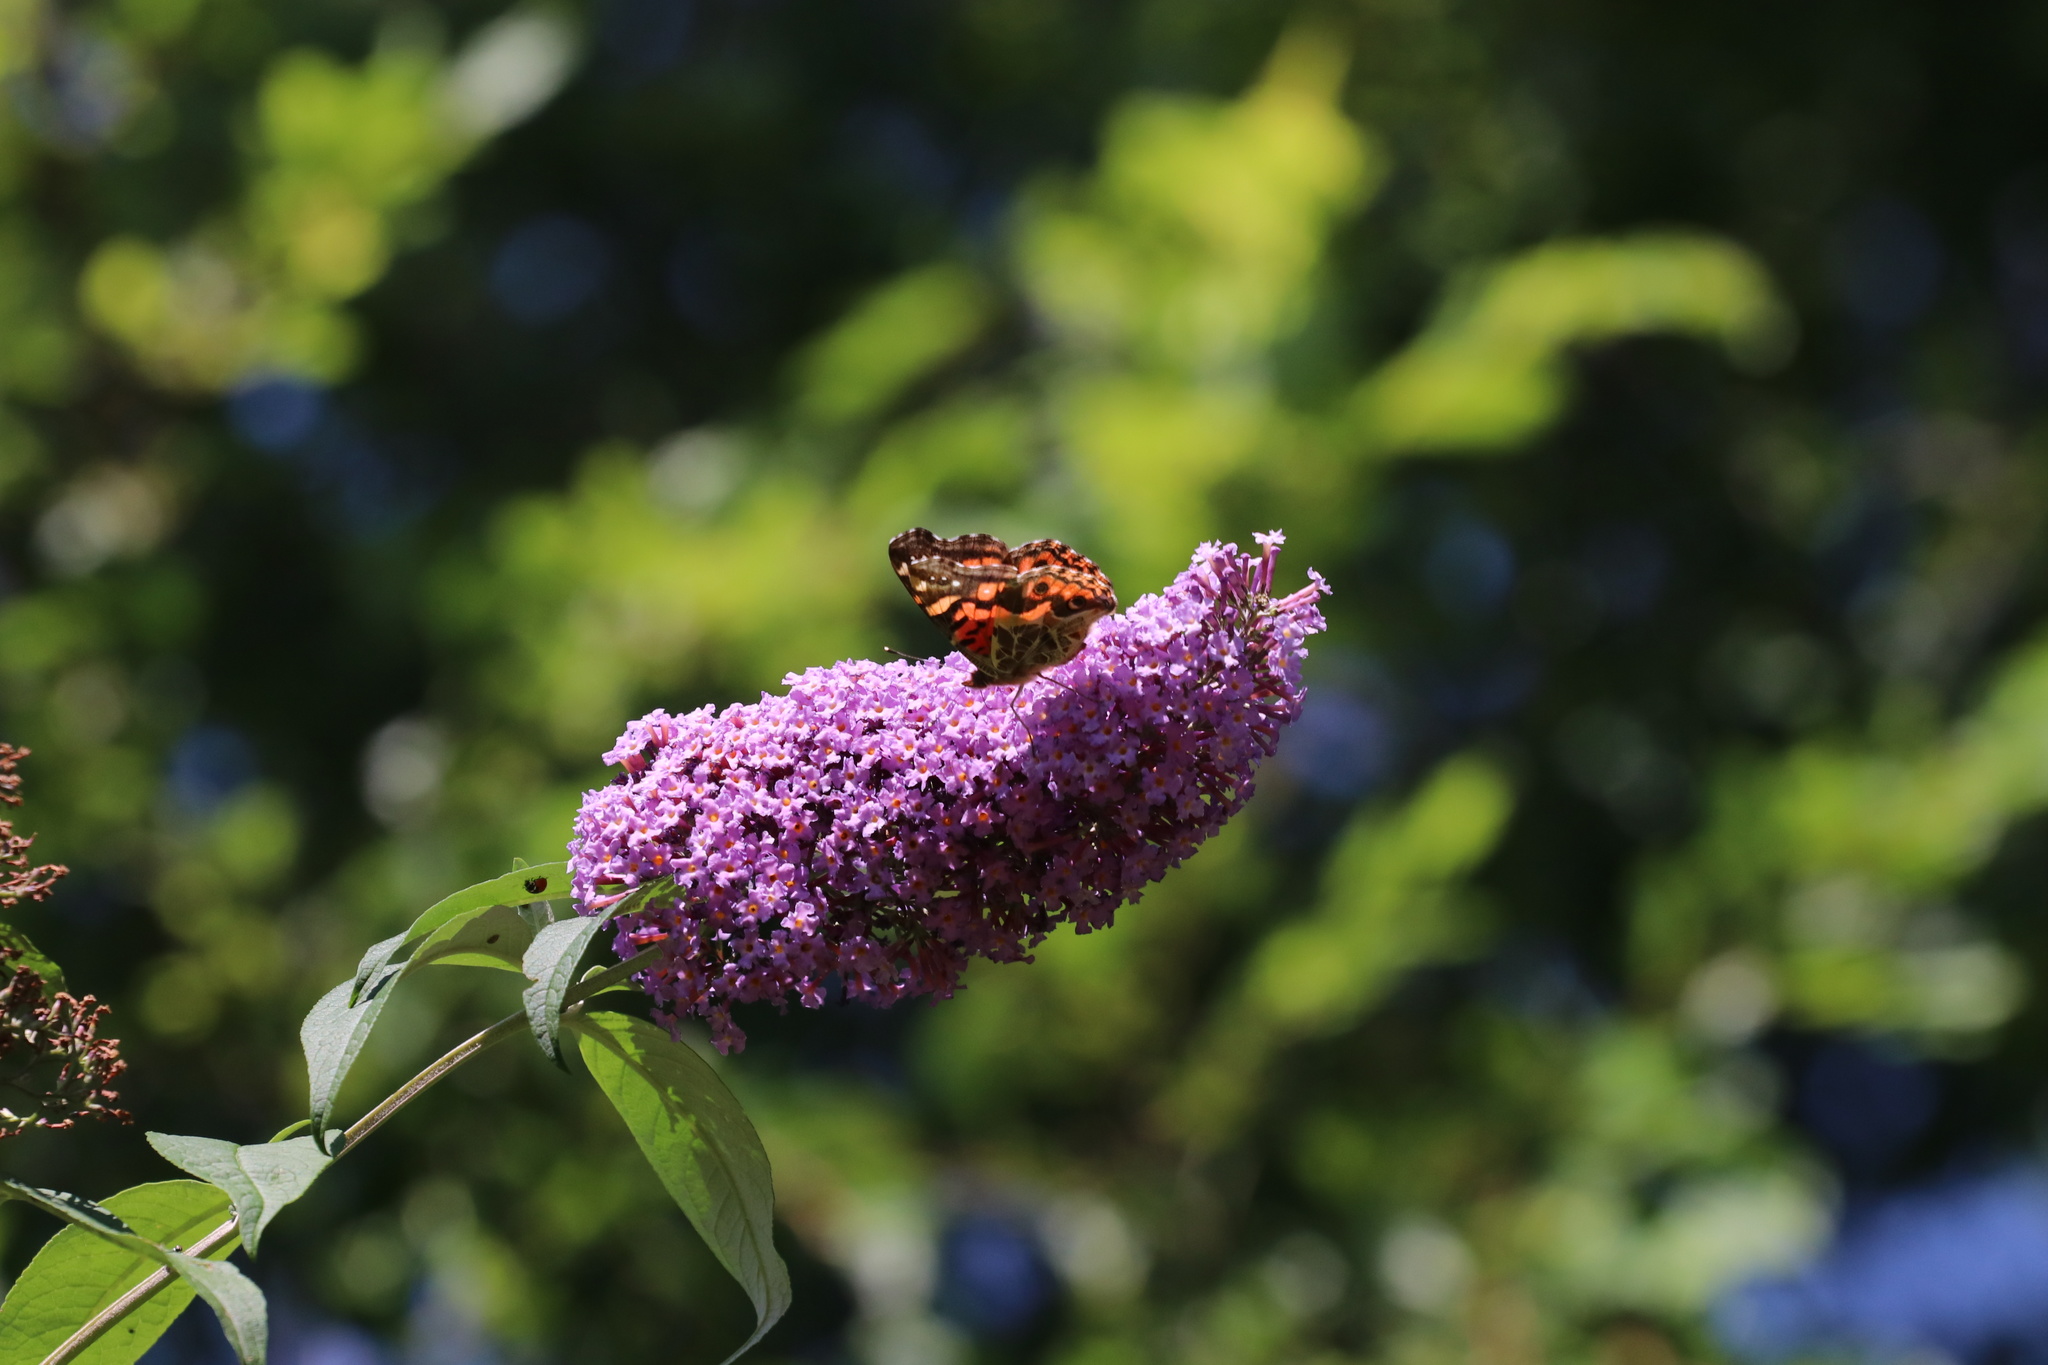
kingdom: Animalia
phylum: Arthropoda
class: Insecta
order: Lepidoptera
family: Nymphalidae
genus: Vanessa
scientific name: Vanessa terpsichore
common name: Chilean lady
